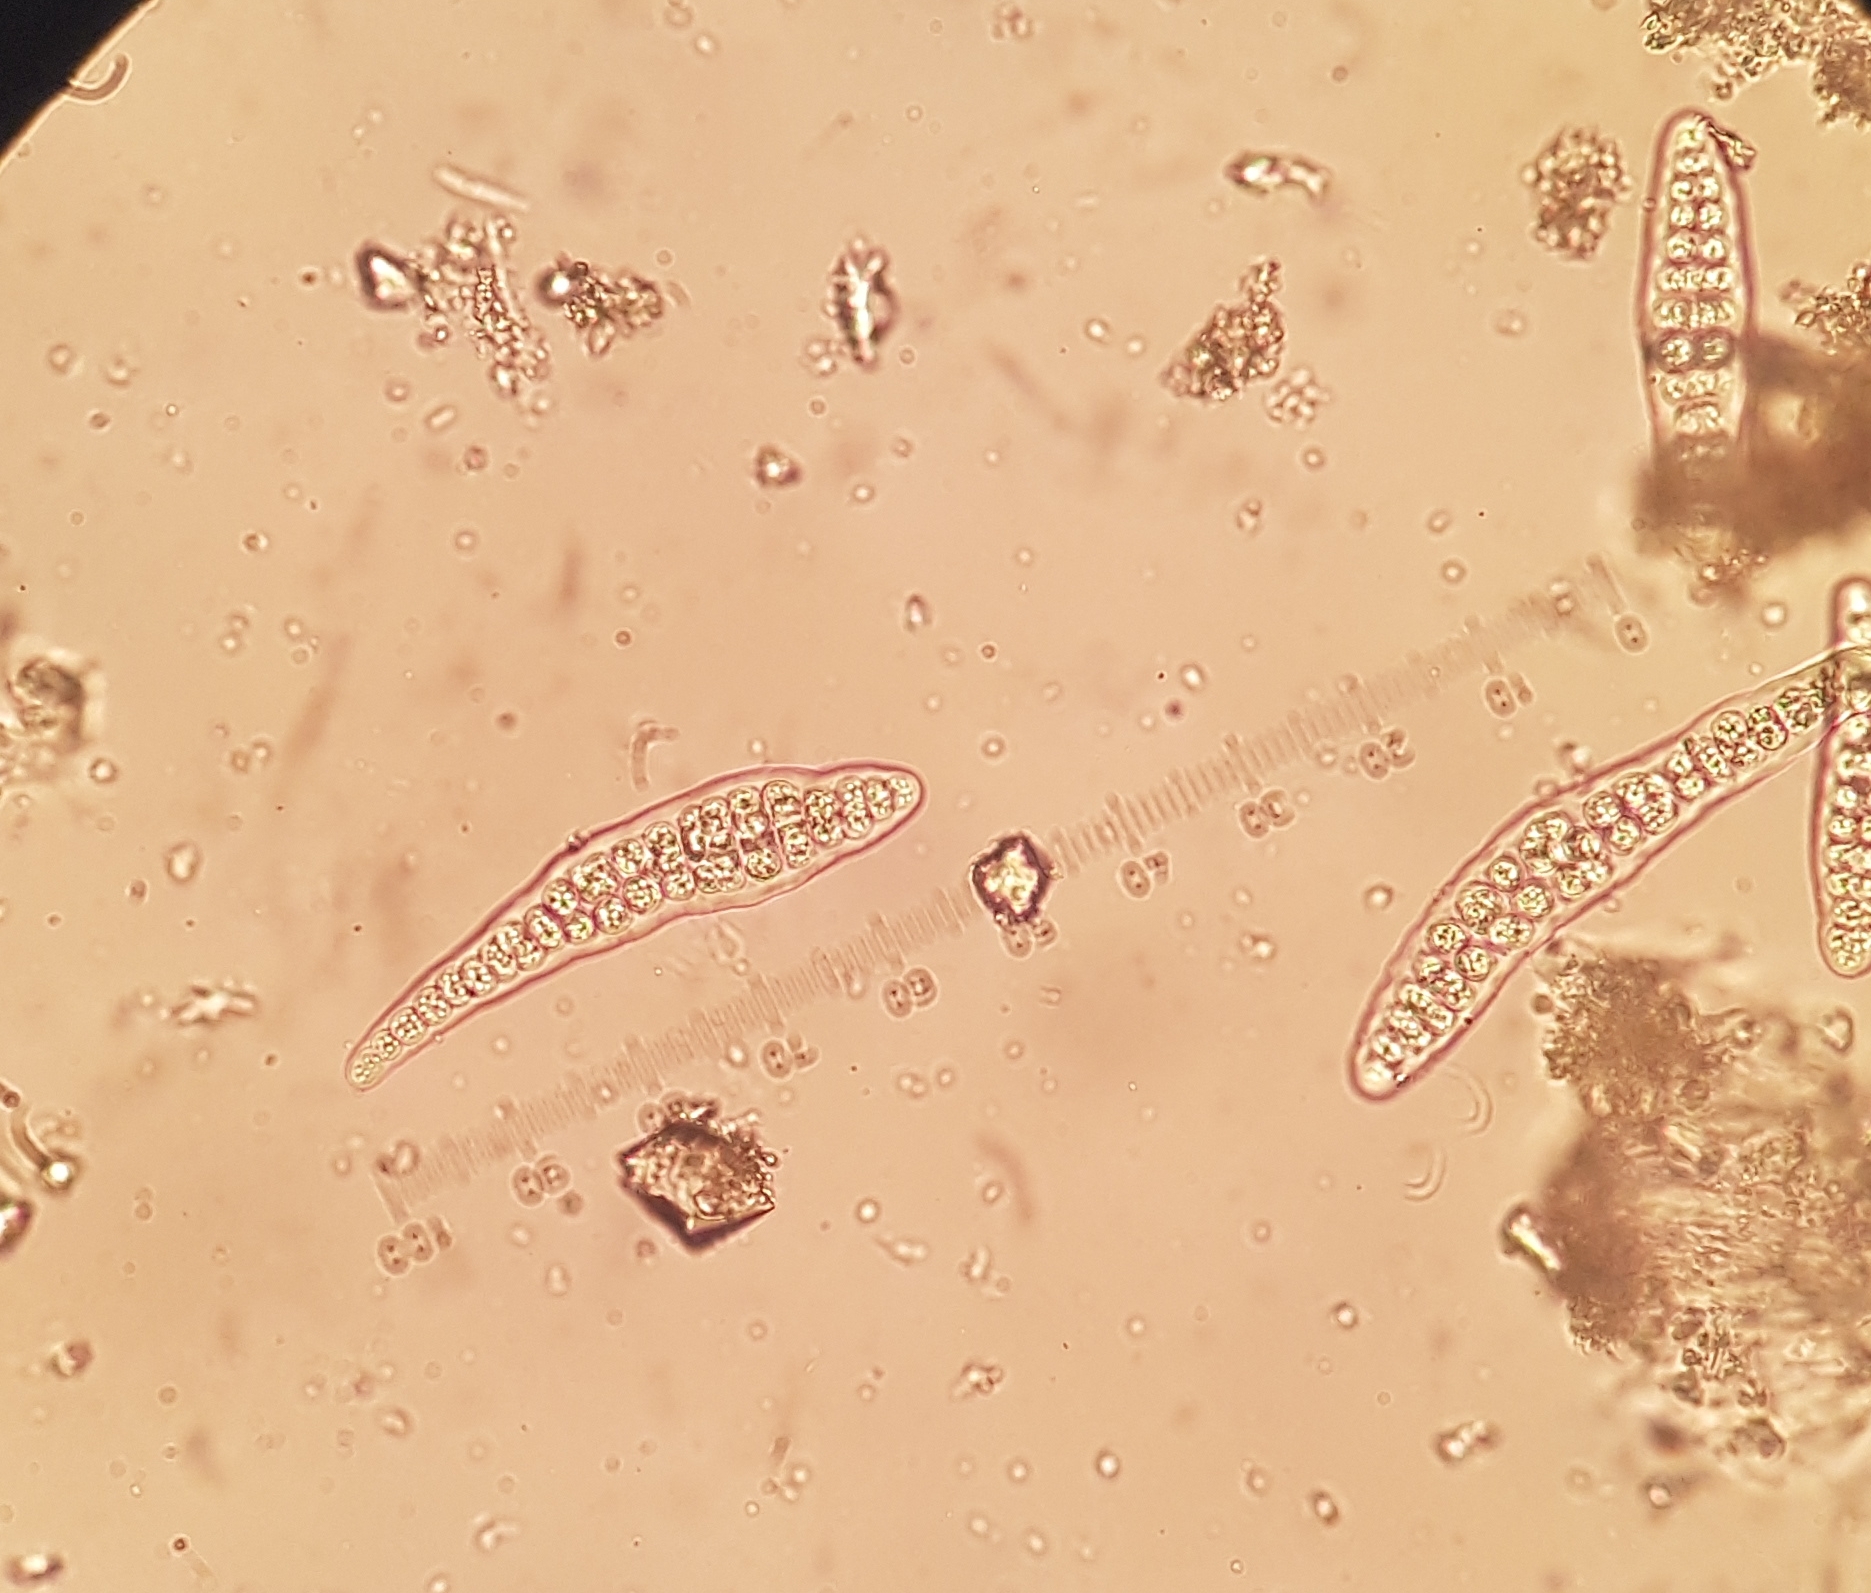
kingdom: Fungi
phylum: Ascomycota
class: Lecanoromycetes
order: Ostropales
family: Graphidaceae
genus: Thelotrema
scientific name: Thelotrema lepadinum
